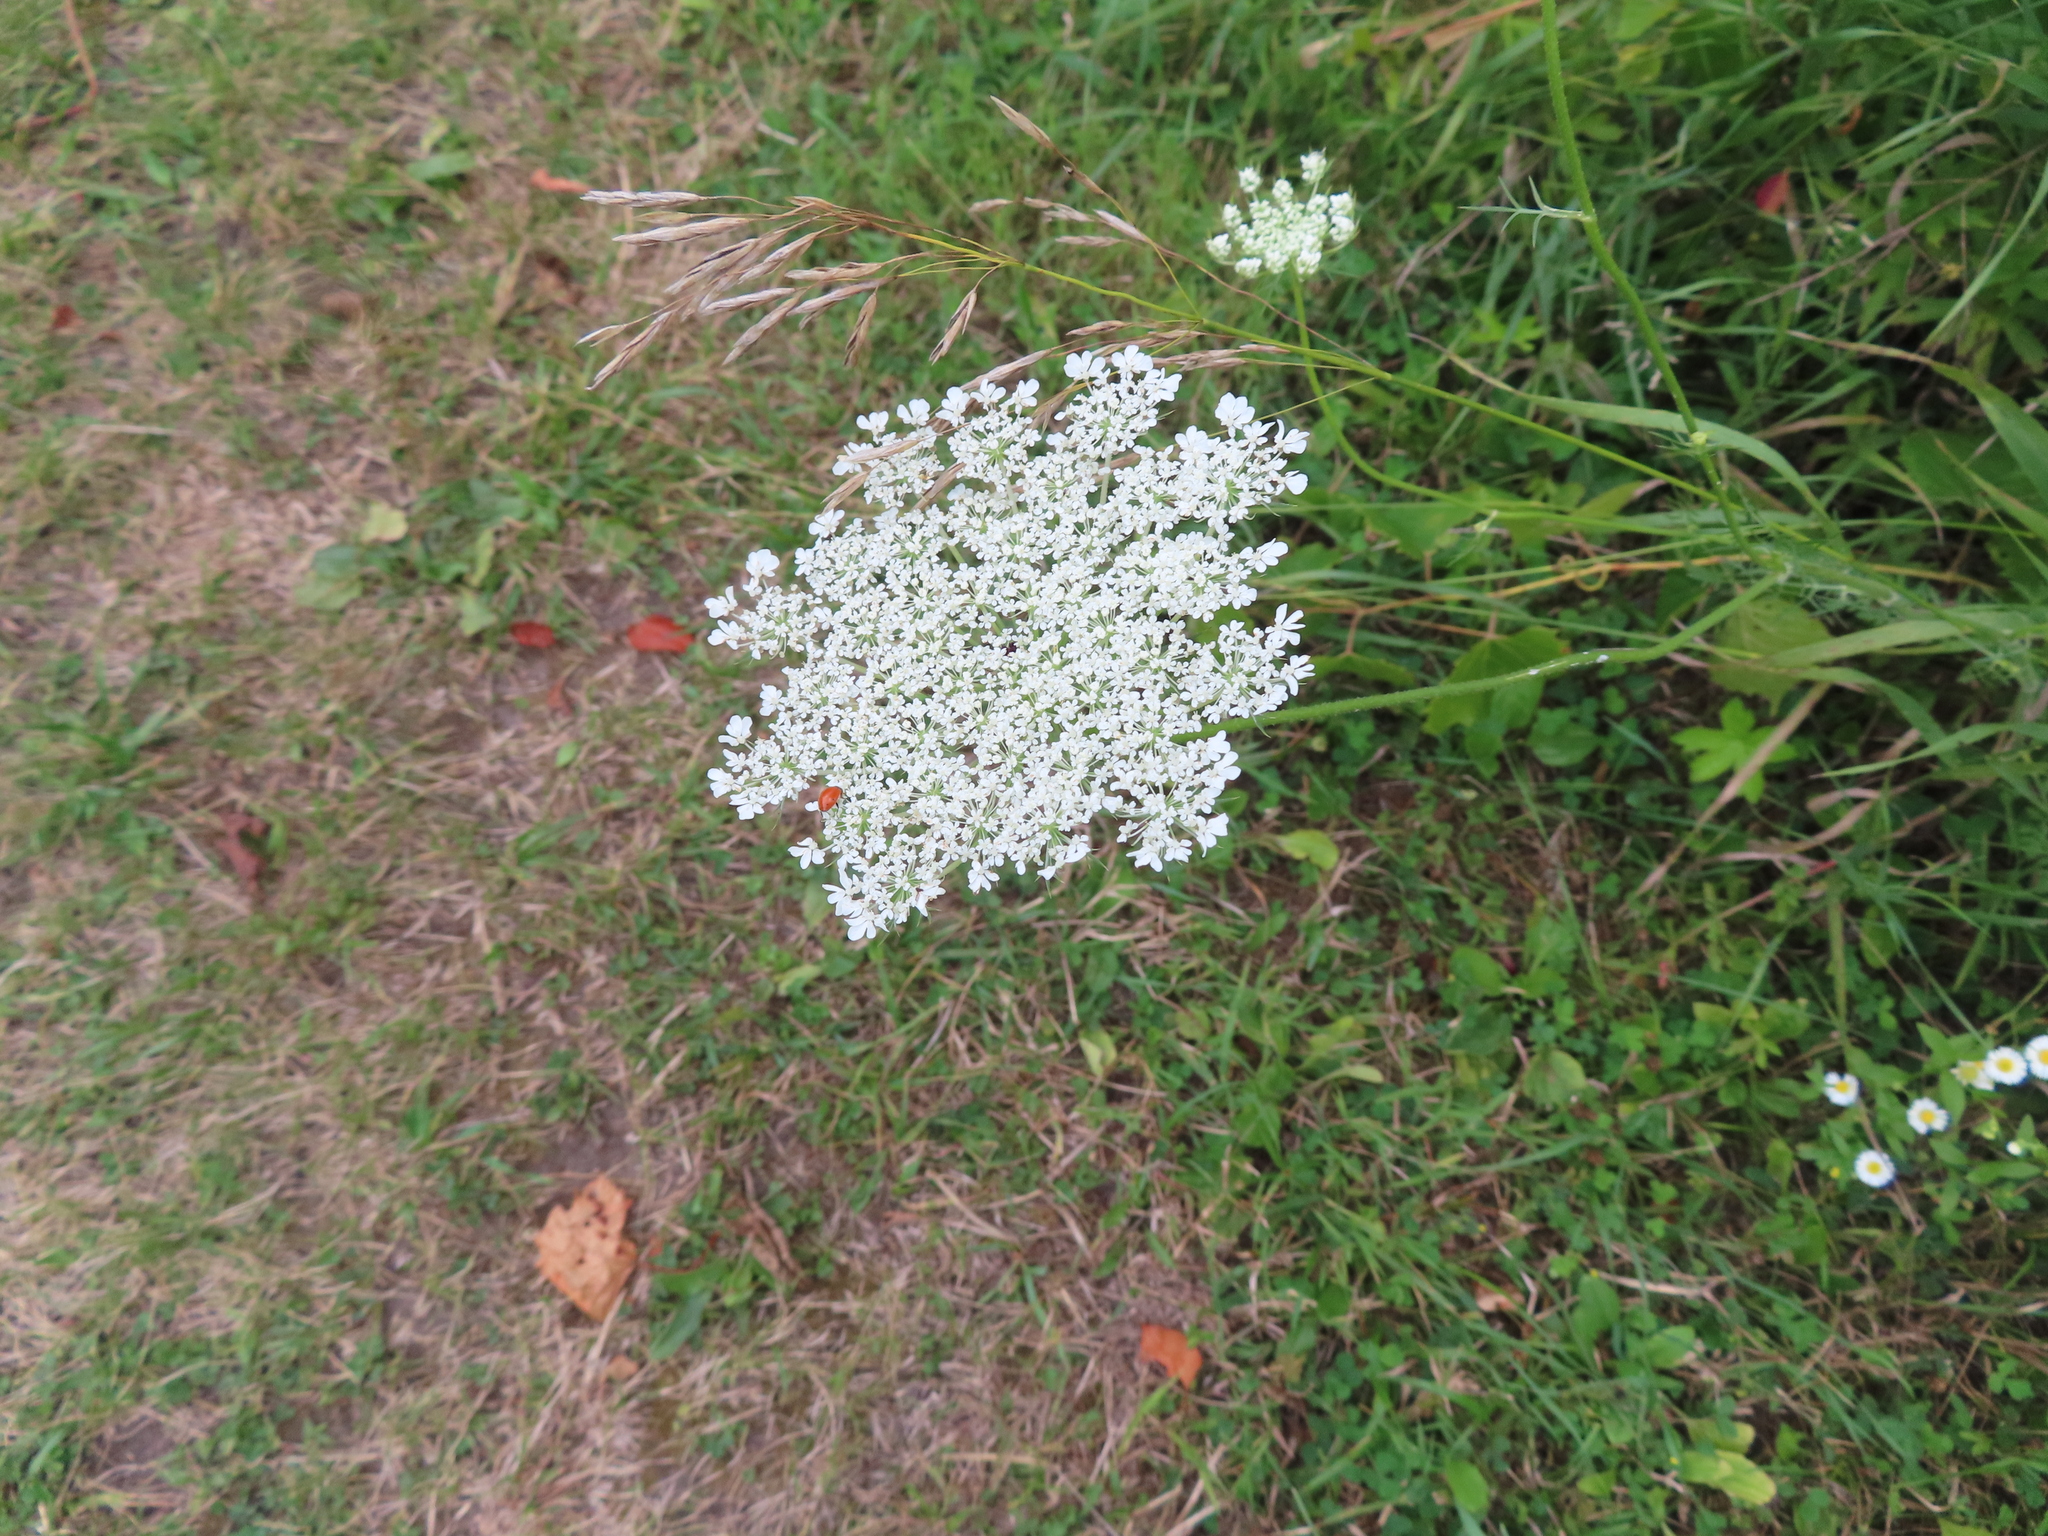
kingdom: Plantae
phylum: Tracheophyta
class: Magnoliopsida
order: Apiales
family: Apiaceae
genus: Daucus
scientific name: Daucus carota
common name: Wild carrot
